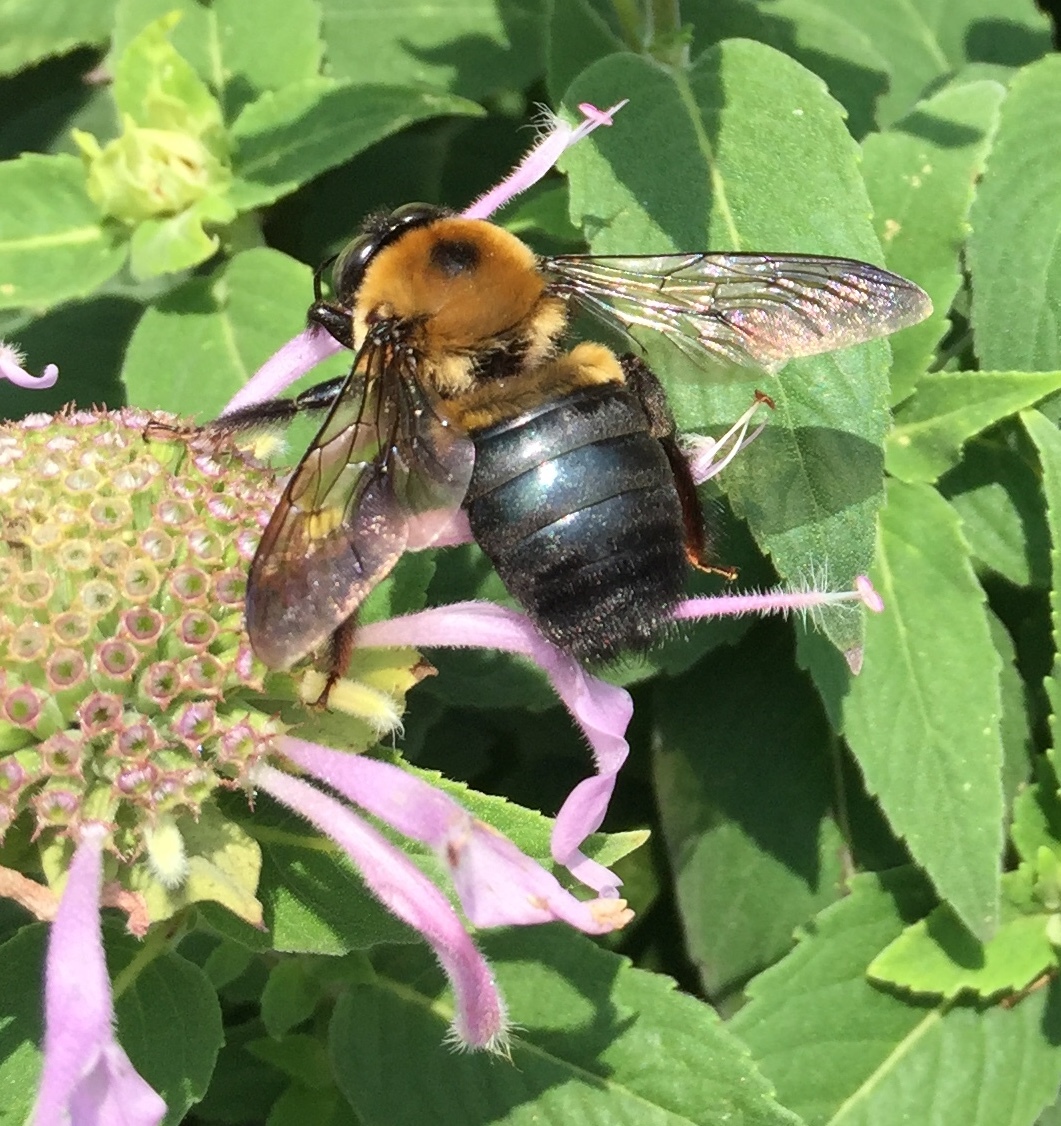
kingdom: Animalia
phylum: Arthropoda
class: Insecta
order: Hymenoptera
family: Apidae
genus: Xylocopa
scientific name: Xylocopa virginica
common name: Carpenter bee
